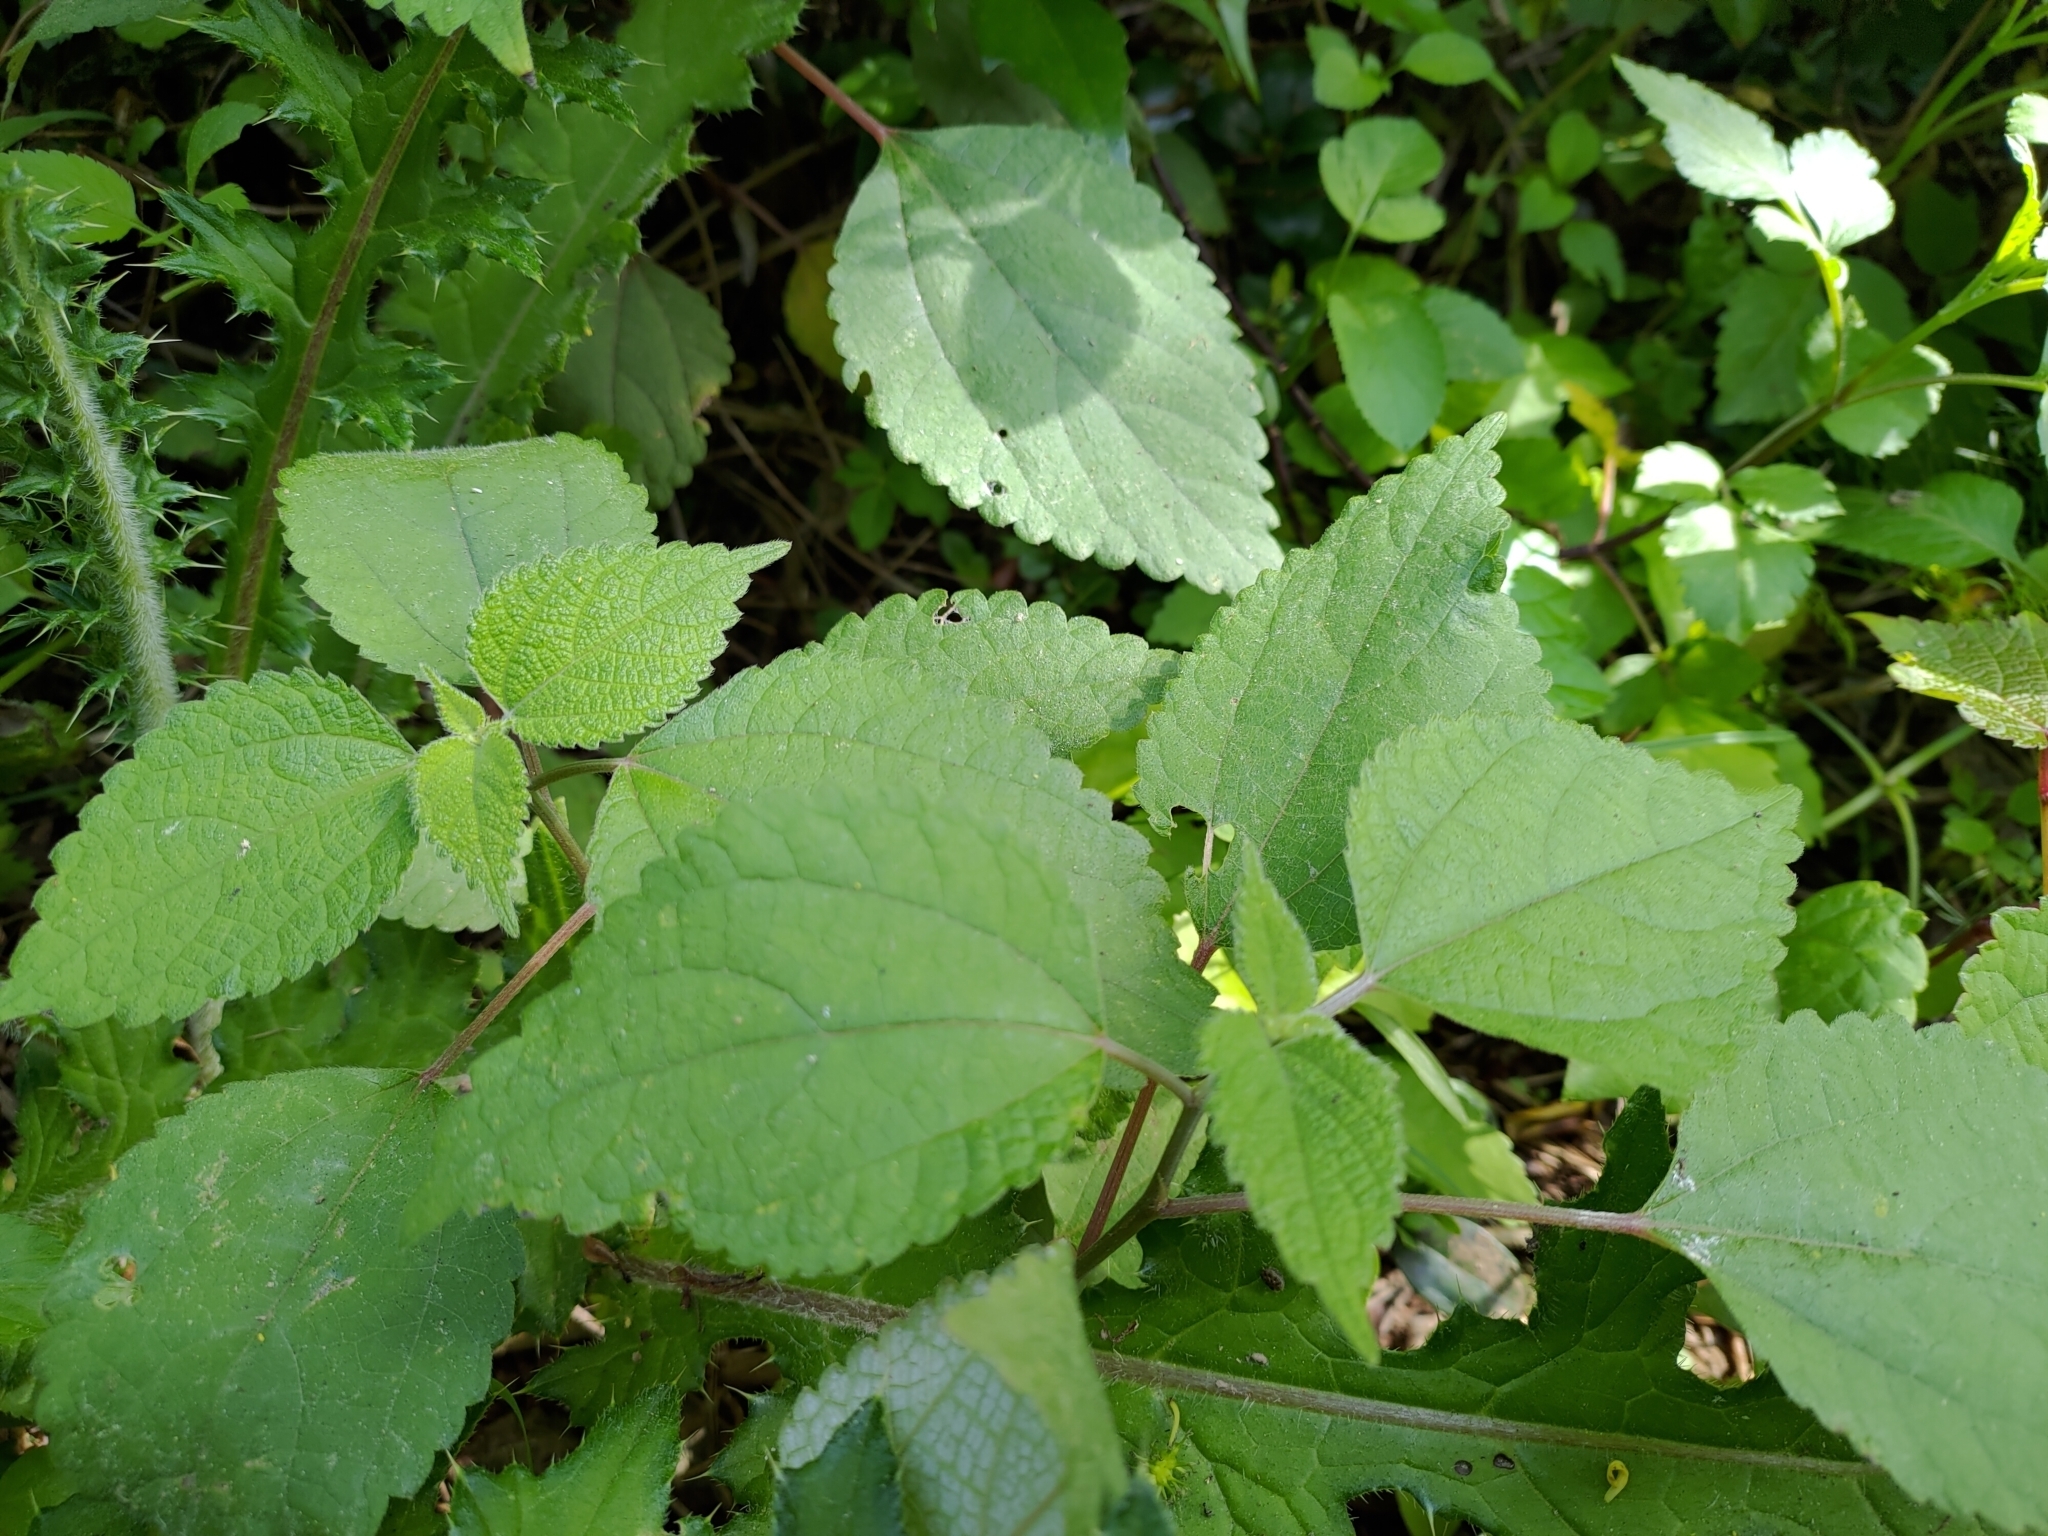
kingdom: Plantae
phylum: Tracheophyta
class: Magnoliopsida
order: Rosales
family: Urticaceae
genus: Boehmeria
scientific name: Boehmeria nivea
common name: Ramie chinese grass
